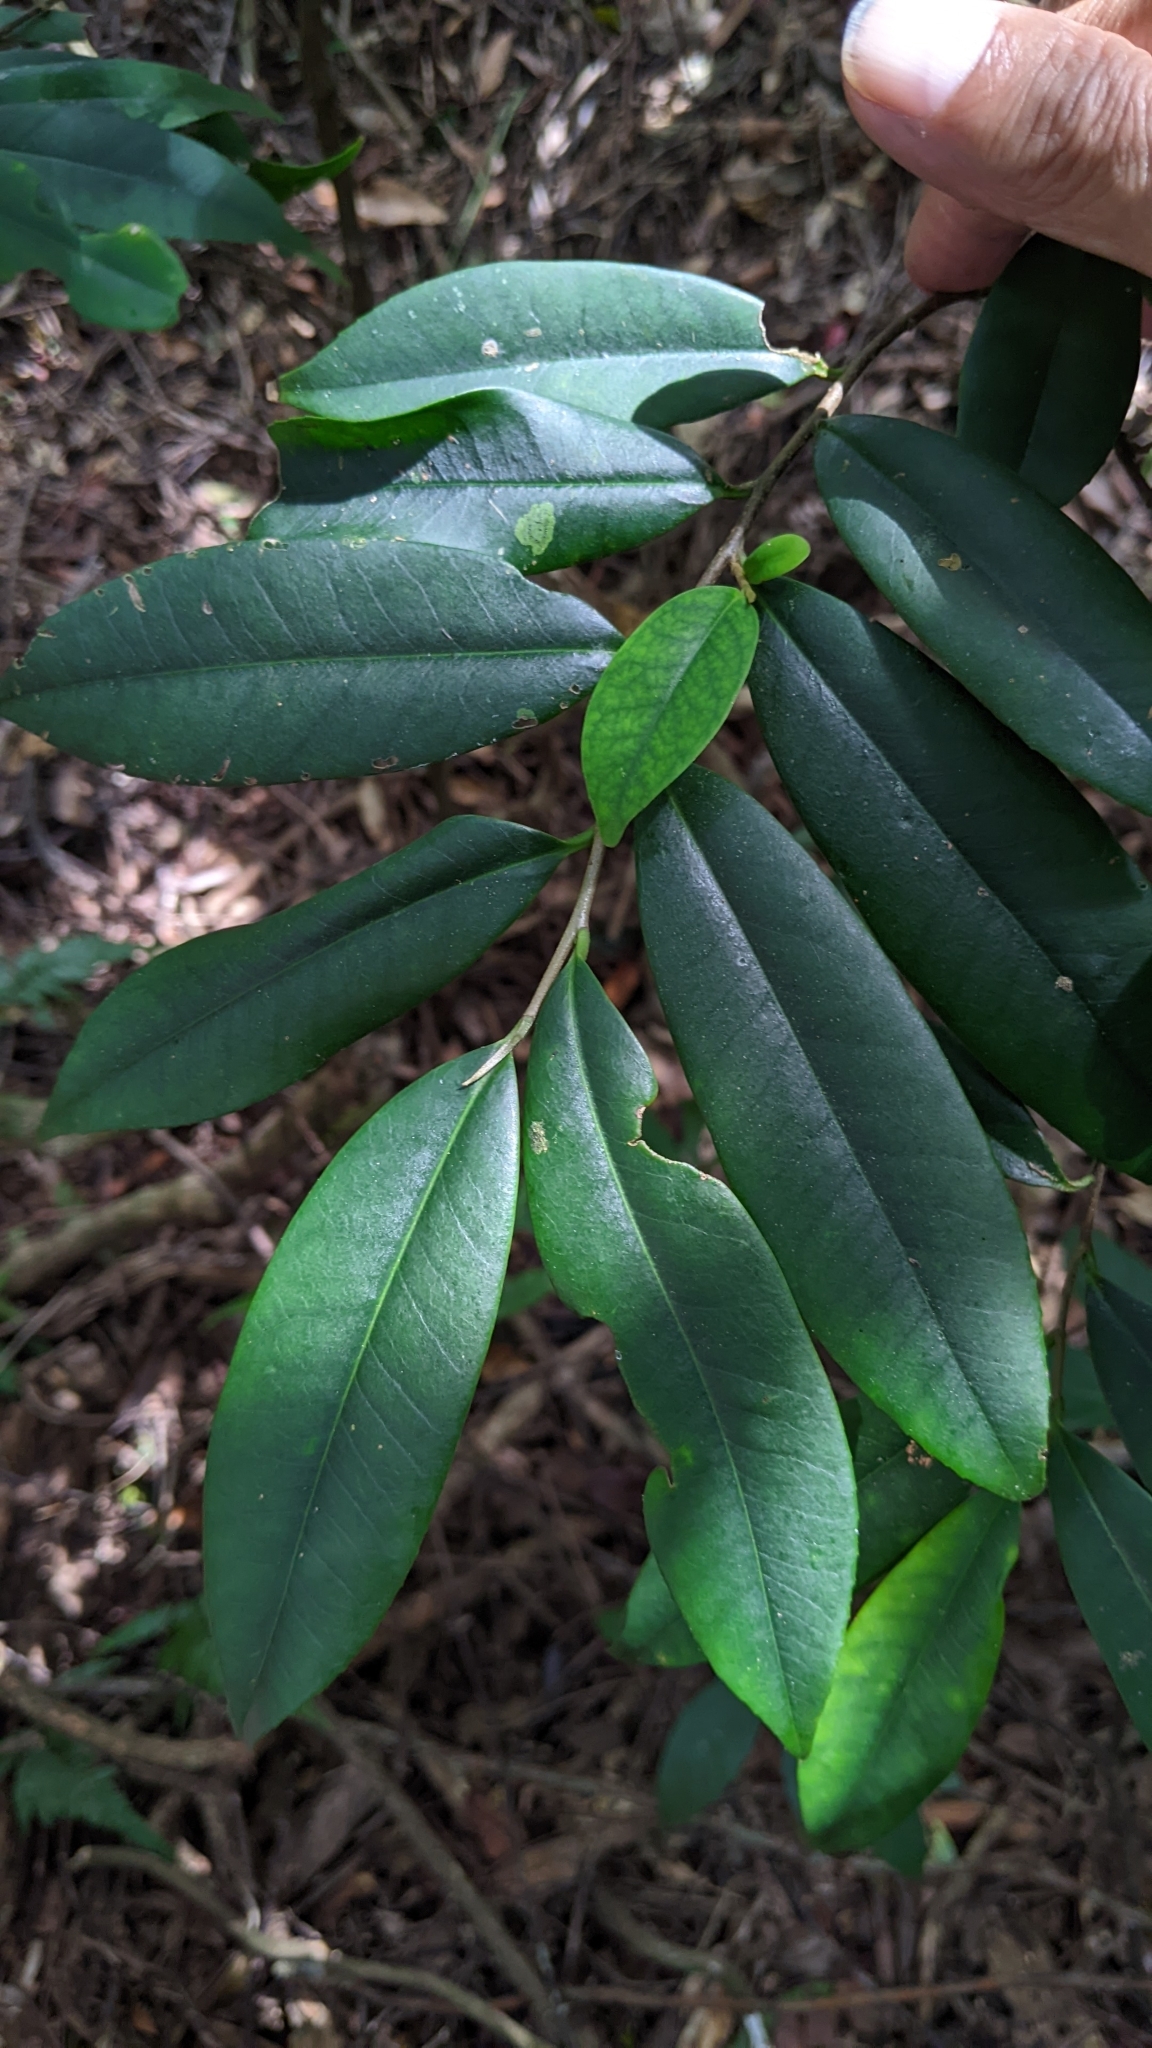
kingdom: Plantae
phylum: Tracheophyta
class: Magnoliopsida
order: Ericales
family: Pentaphylacaceae
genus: Adinandra
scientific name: Adinandra formosana
